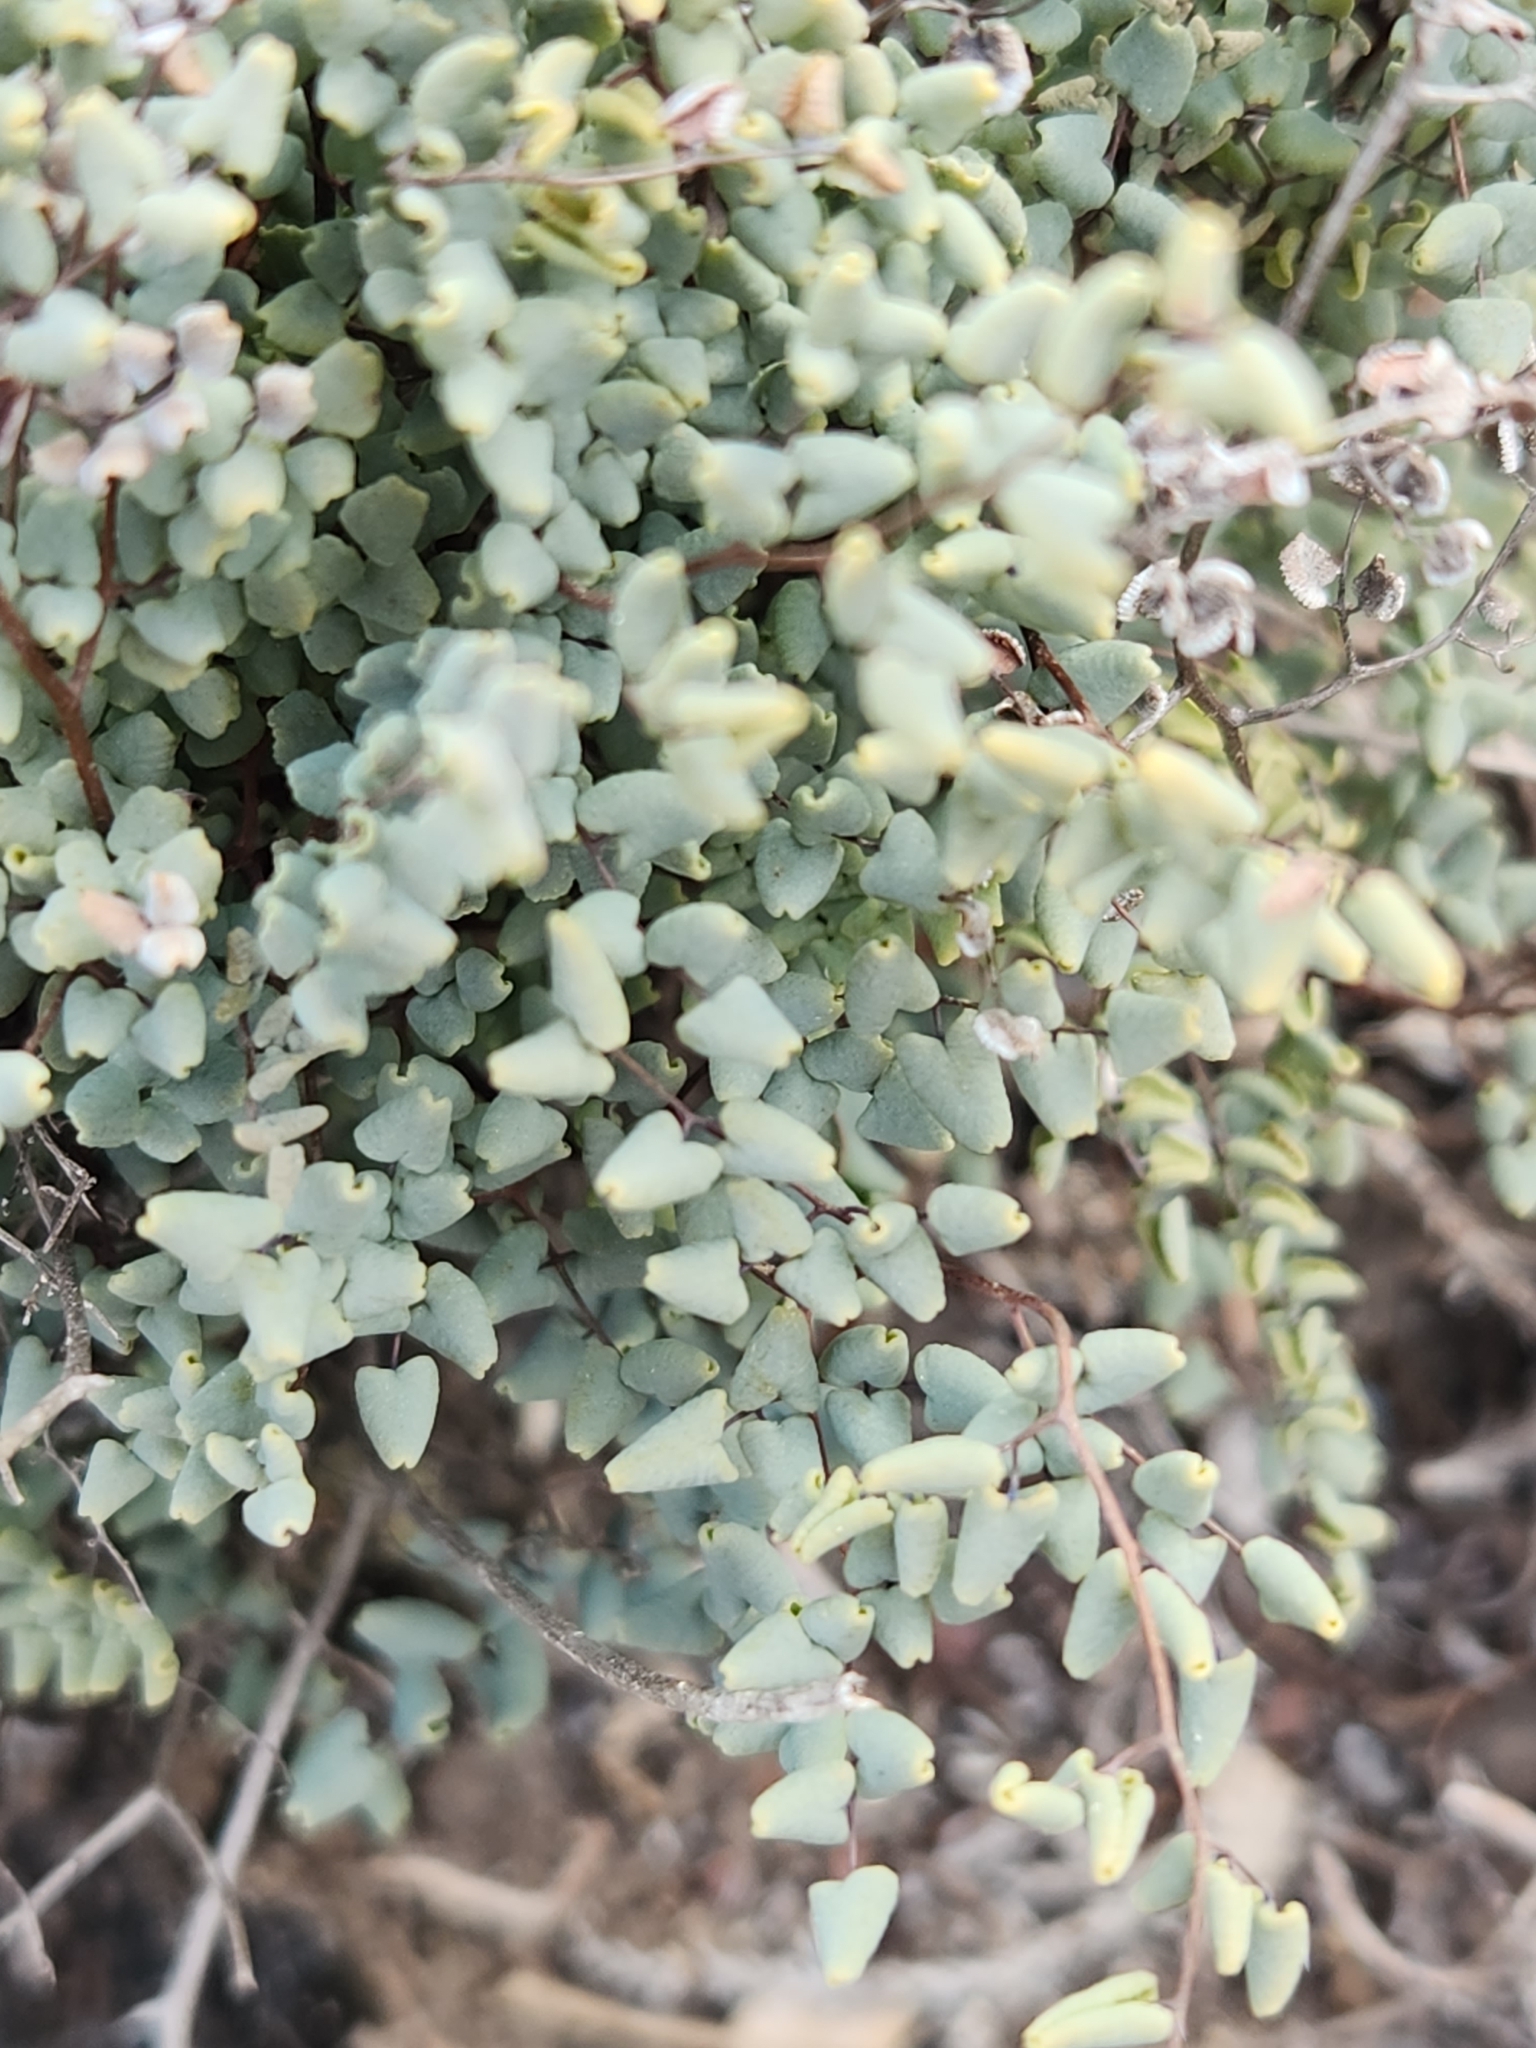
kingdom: Plantae
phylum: Tracheophyta
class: Polypodiopsida
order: Polypodiales
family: Pteridaceae
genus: Argyrochosma
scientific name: Argyrochosma microphylla
